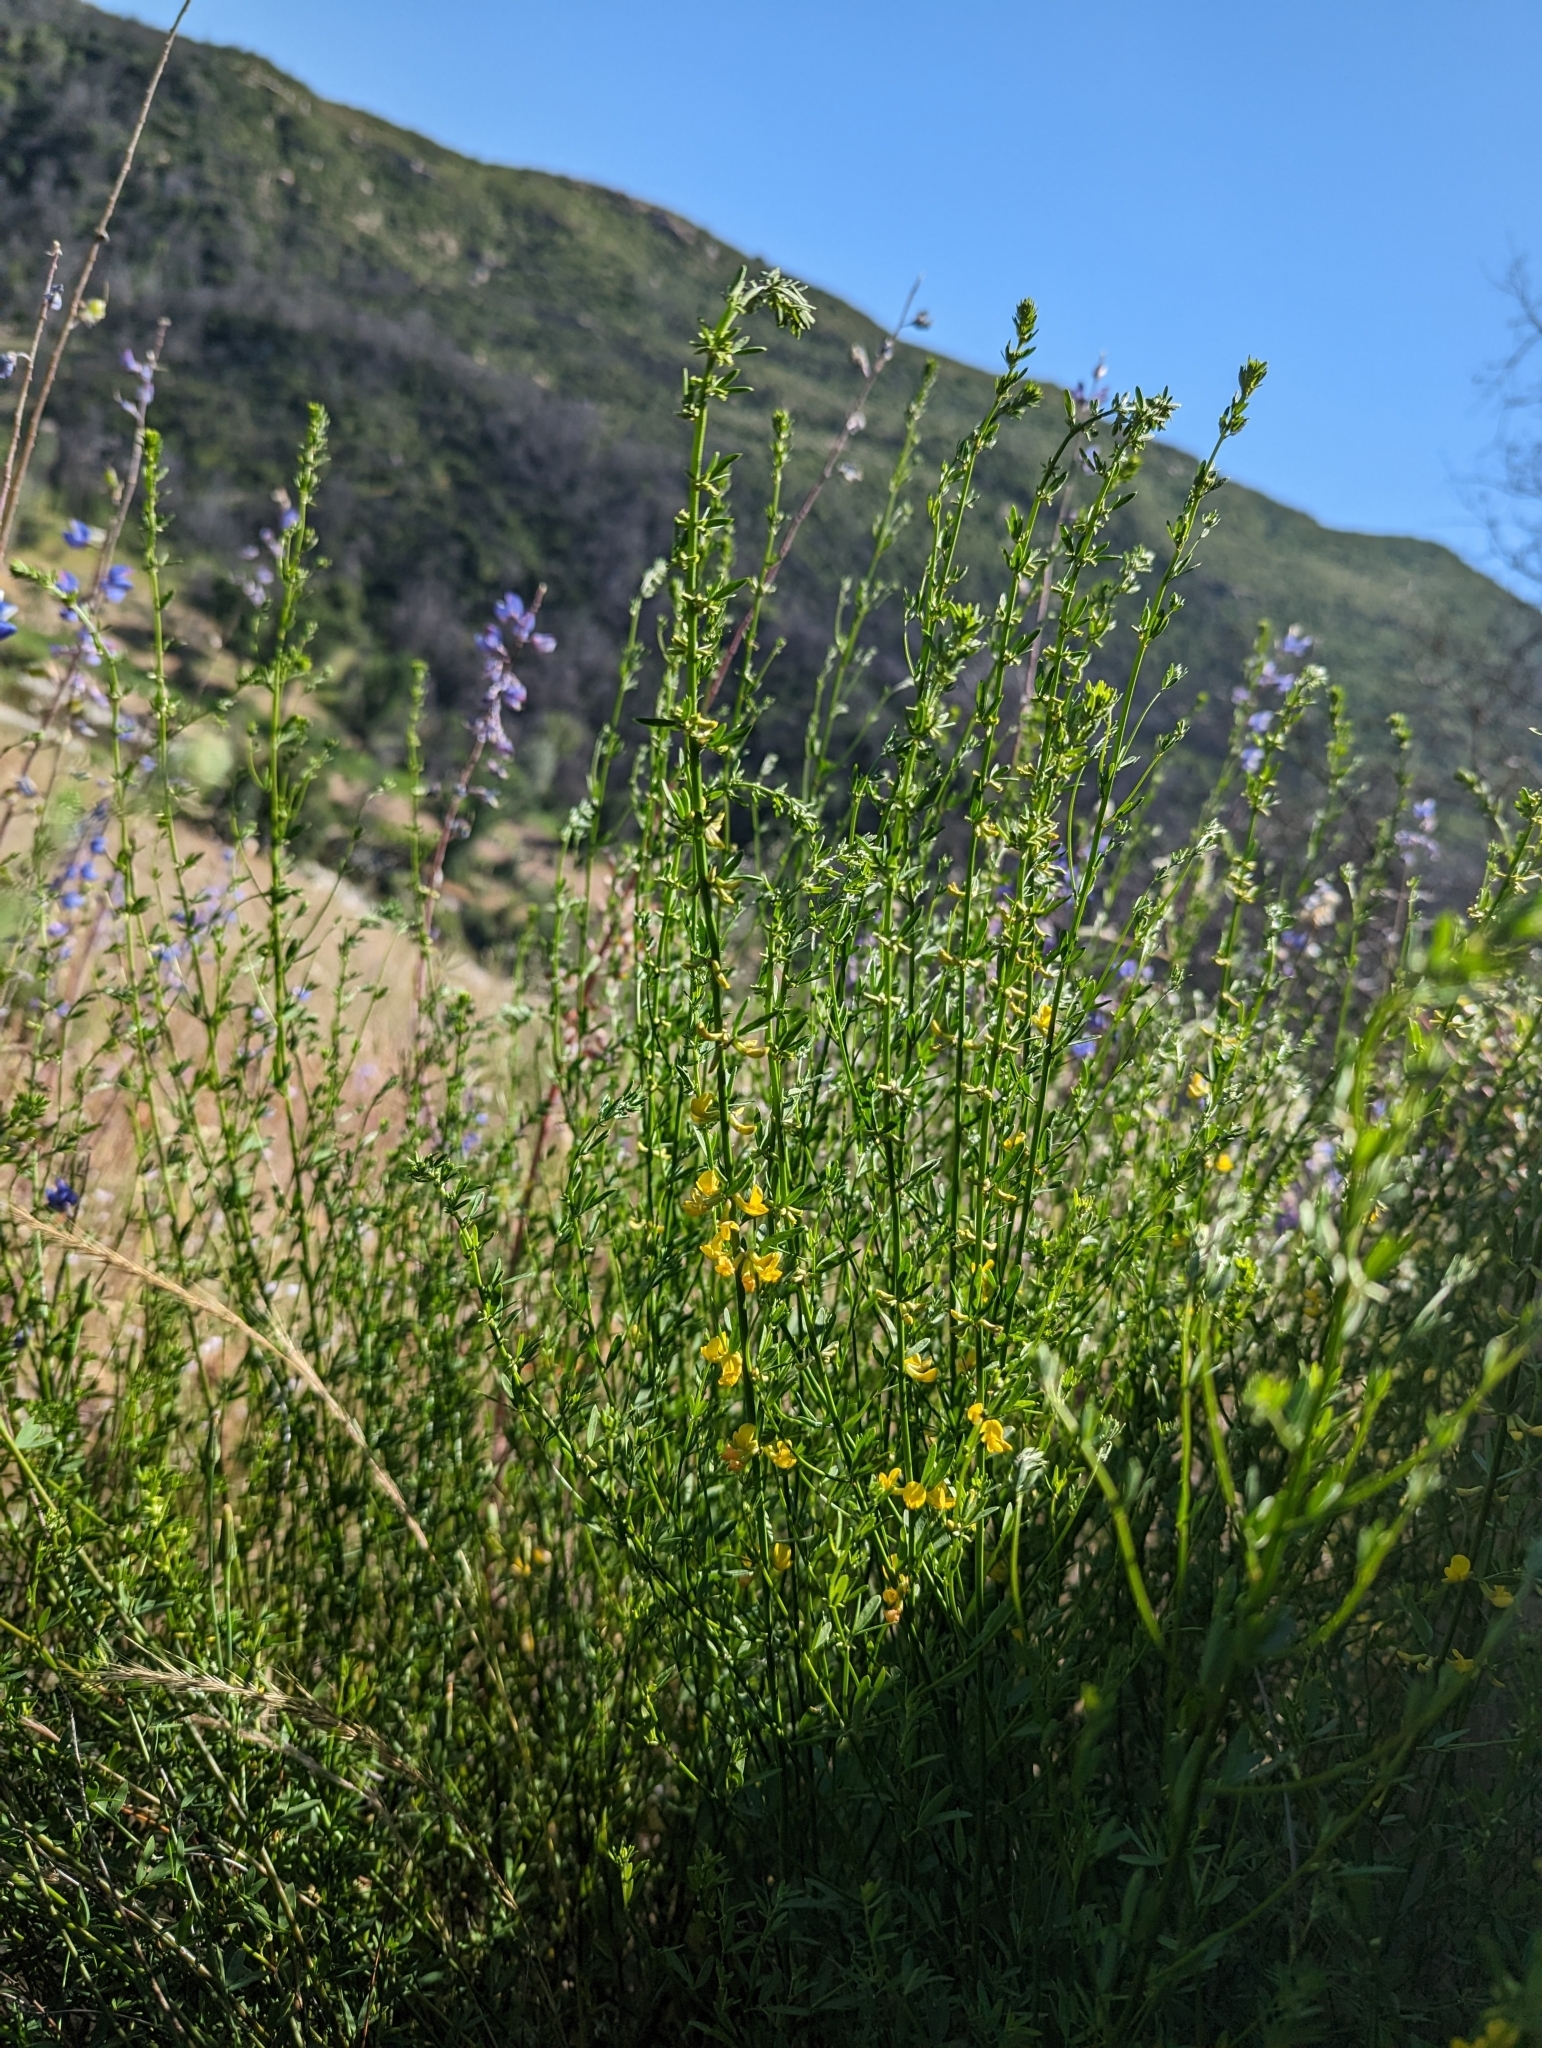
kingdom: Plantae
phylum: Tracheophyta
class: Magnoliopsida
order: Fabales
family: Fabaceae
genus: Acmispon
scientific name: Acmispon glaber
